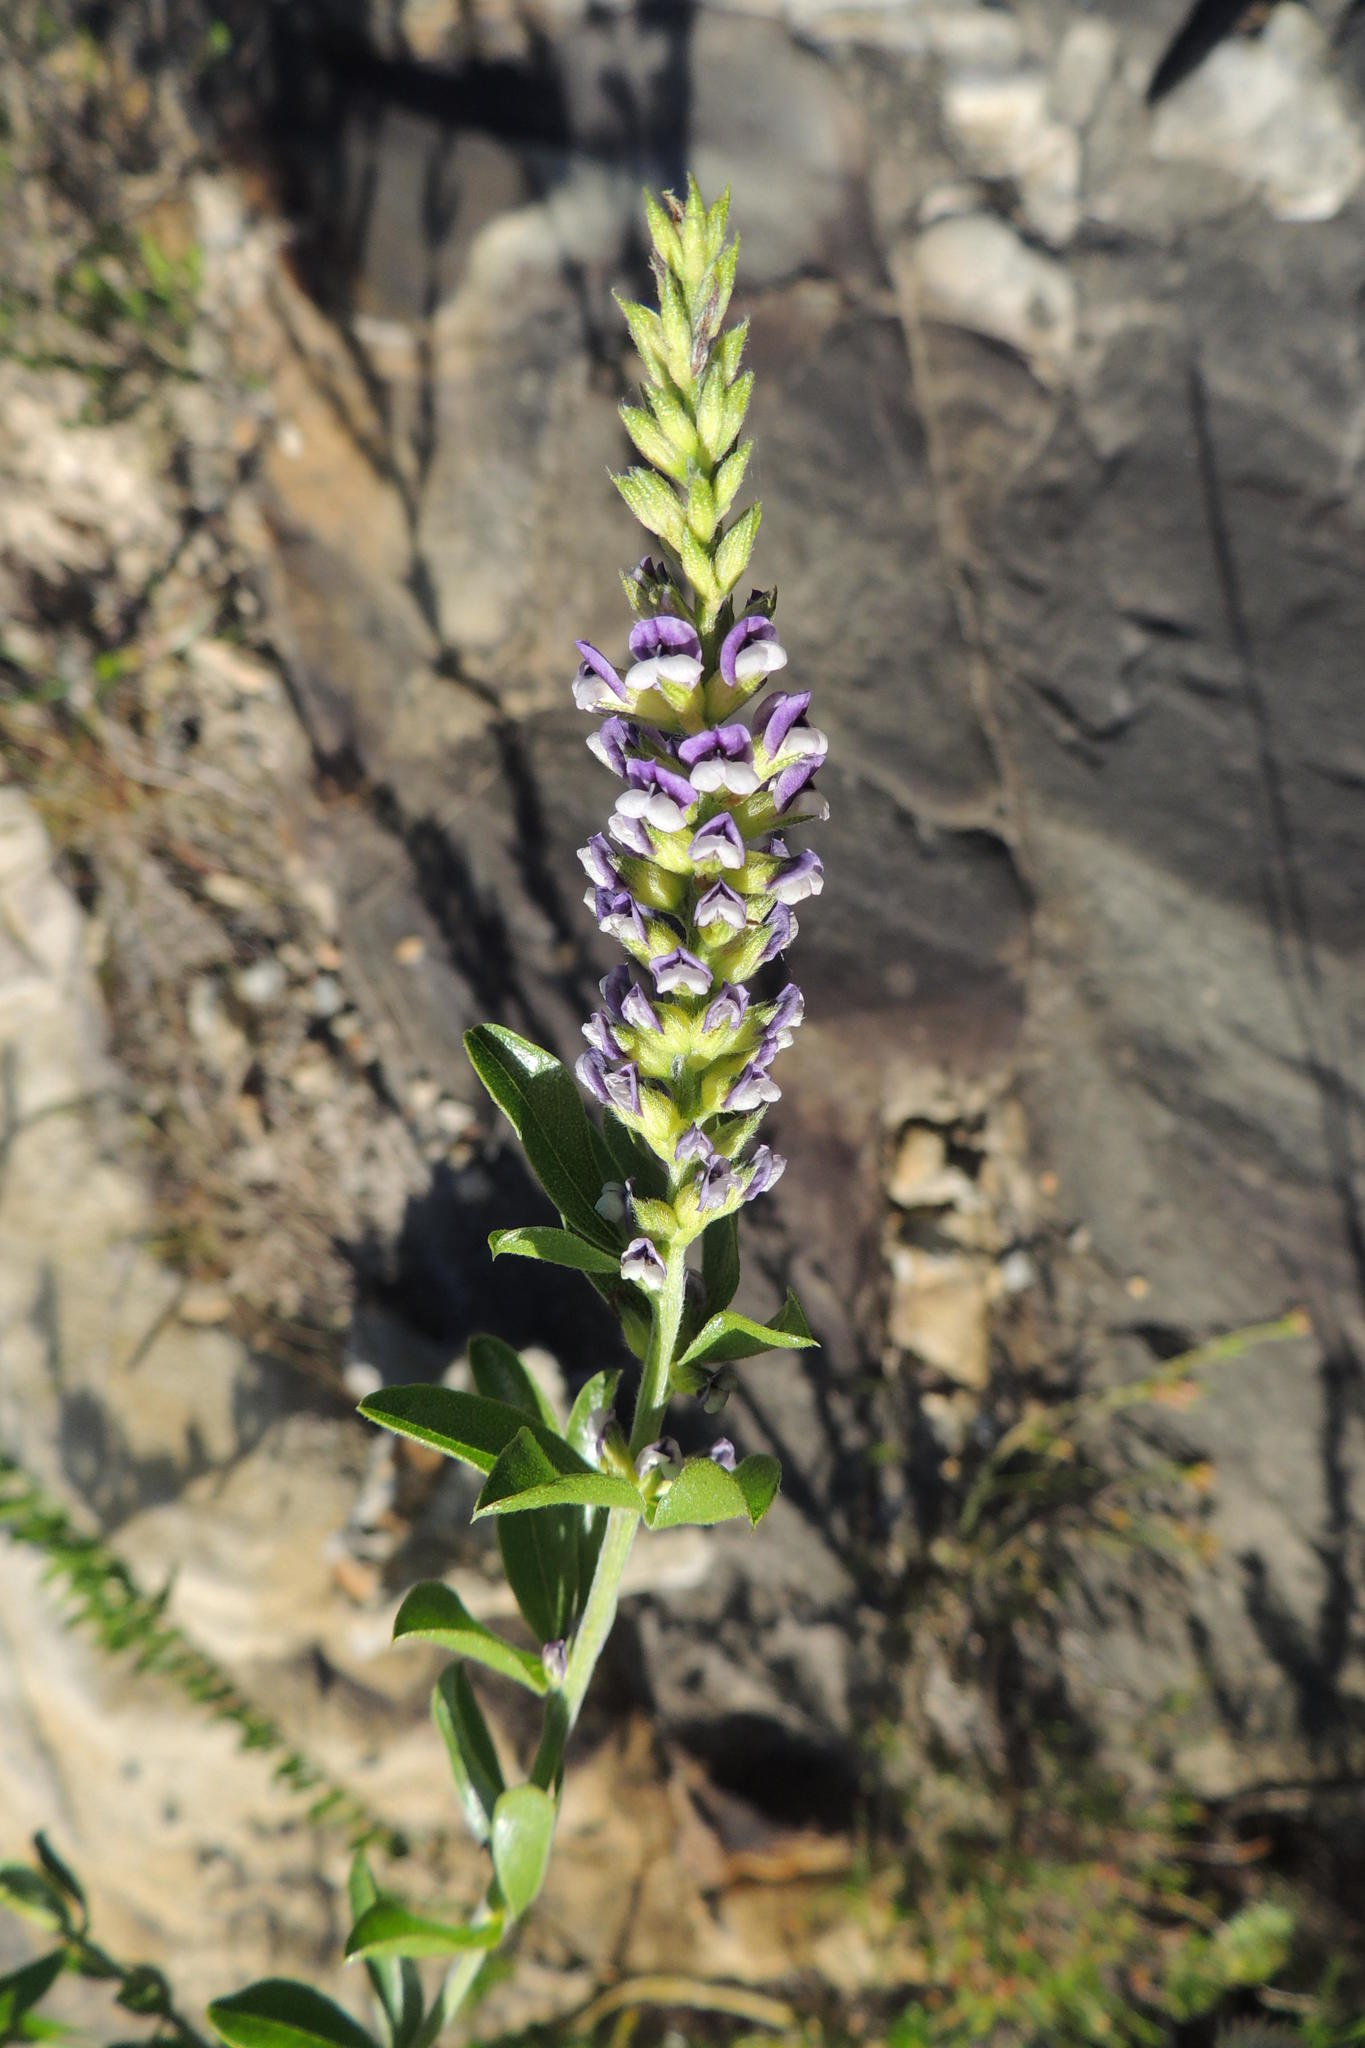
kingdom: Plantae
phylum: Tracheophyta
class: Magnoliopsida
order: Fabales
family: Fabaceae
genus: Psoralea
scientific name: Psoralea spicata
